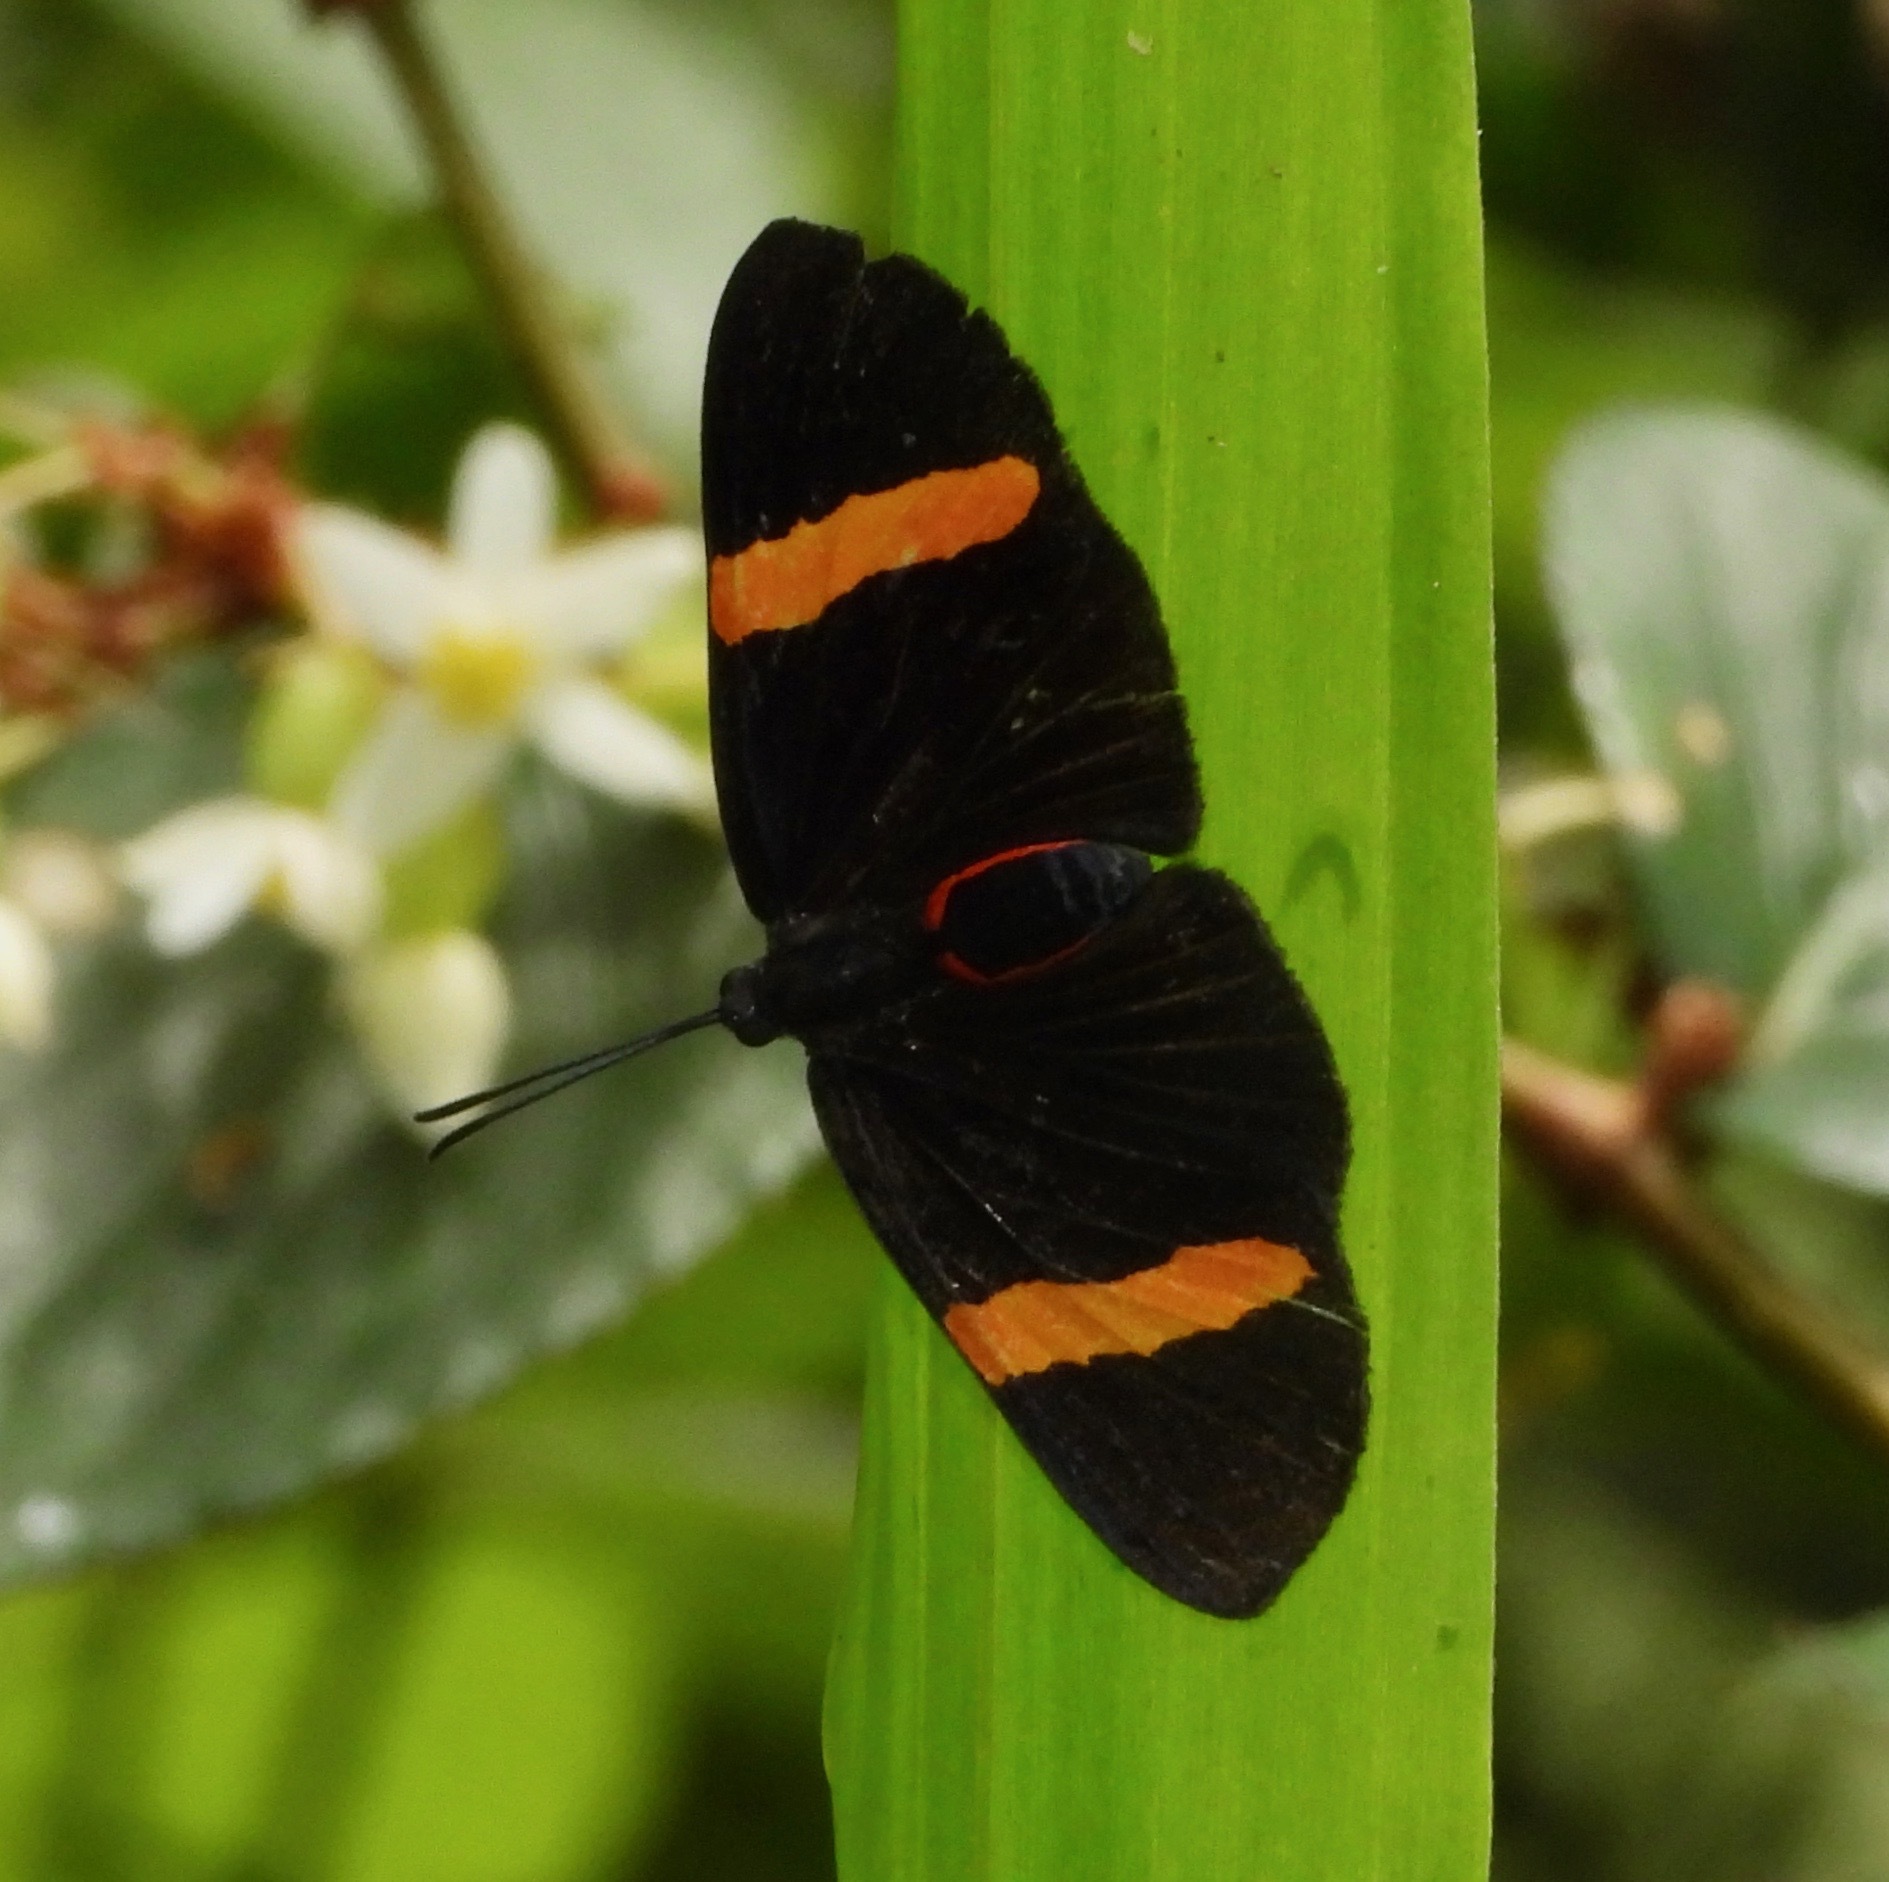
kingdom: Animalia
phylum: Arthropoda
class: Insecta
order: Lepidoptera
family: Lycaenidae
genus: Melanis
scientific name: Melanis
